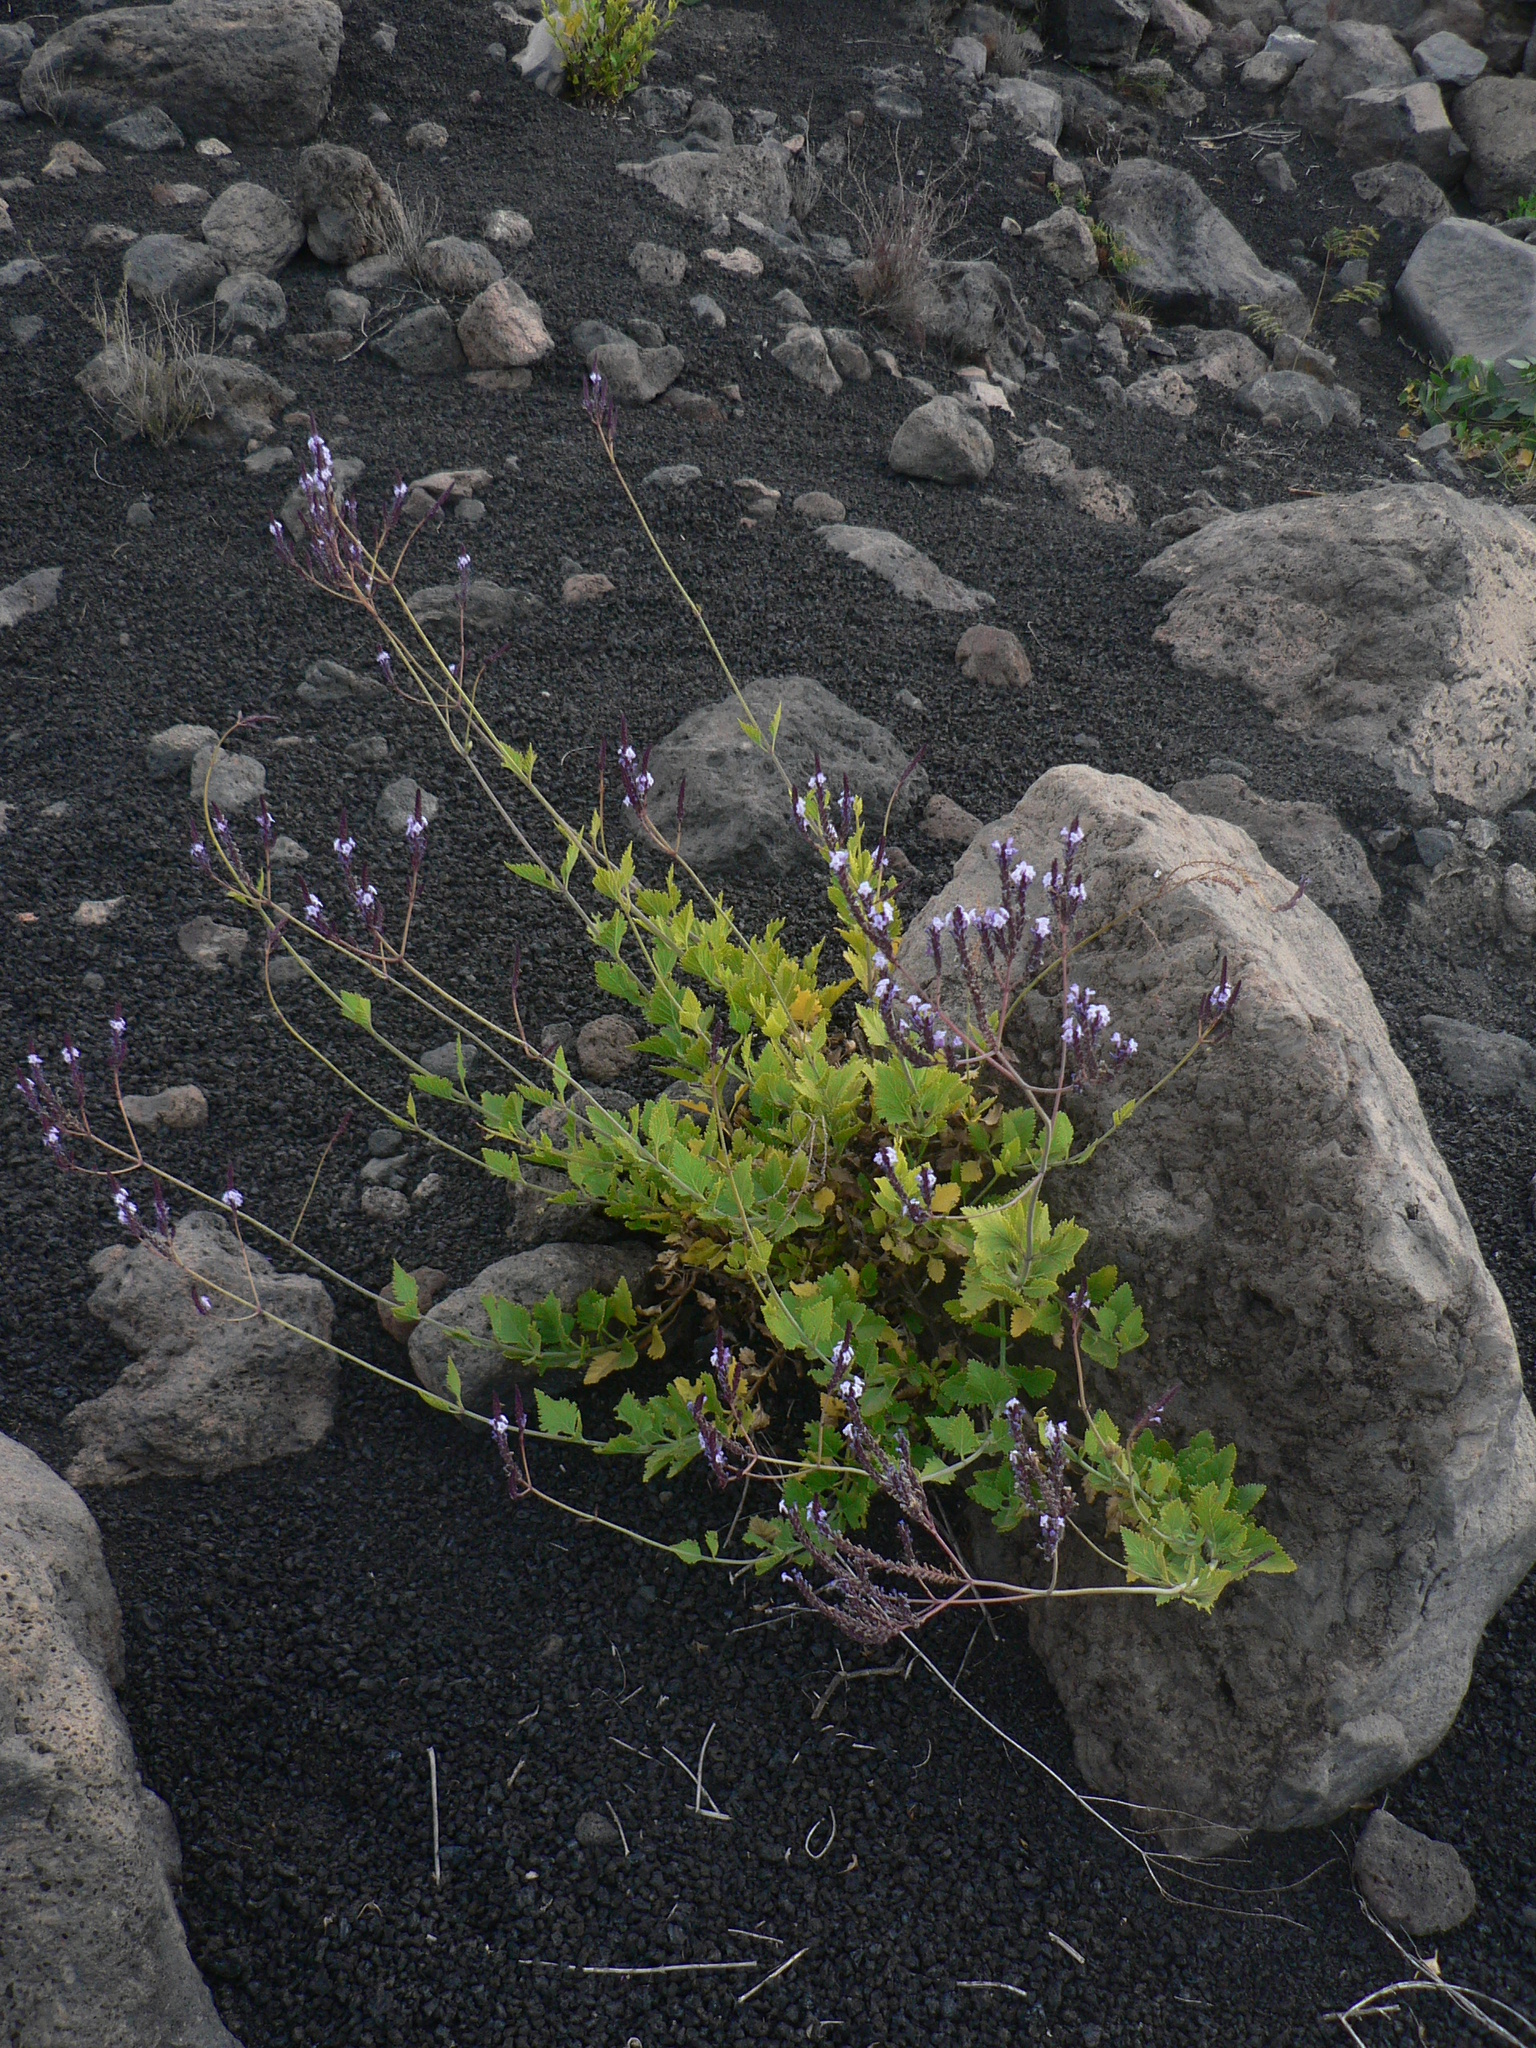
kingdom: Plantae
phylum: Tracheophyta
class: Magnoliopsida
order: Lamiales
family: Lamiaceae
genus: Lavandula
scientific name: Lavandula rotundifolia
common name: Round-leaf lavender
